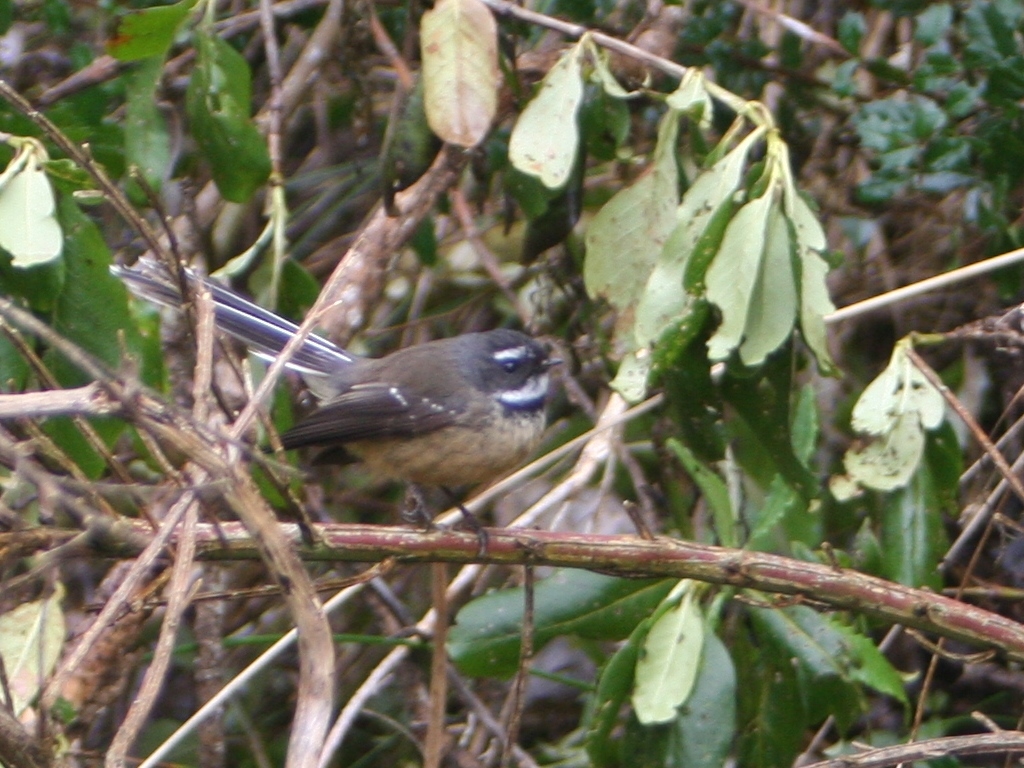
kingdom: Animalia
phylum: Chordata
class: Aves
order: Passeriformes
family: Rhipiduridae
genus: Rhipidura
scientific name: Rhipidura fuliginosa
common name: New zealand fantail
